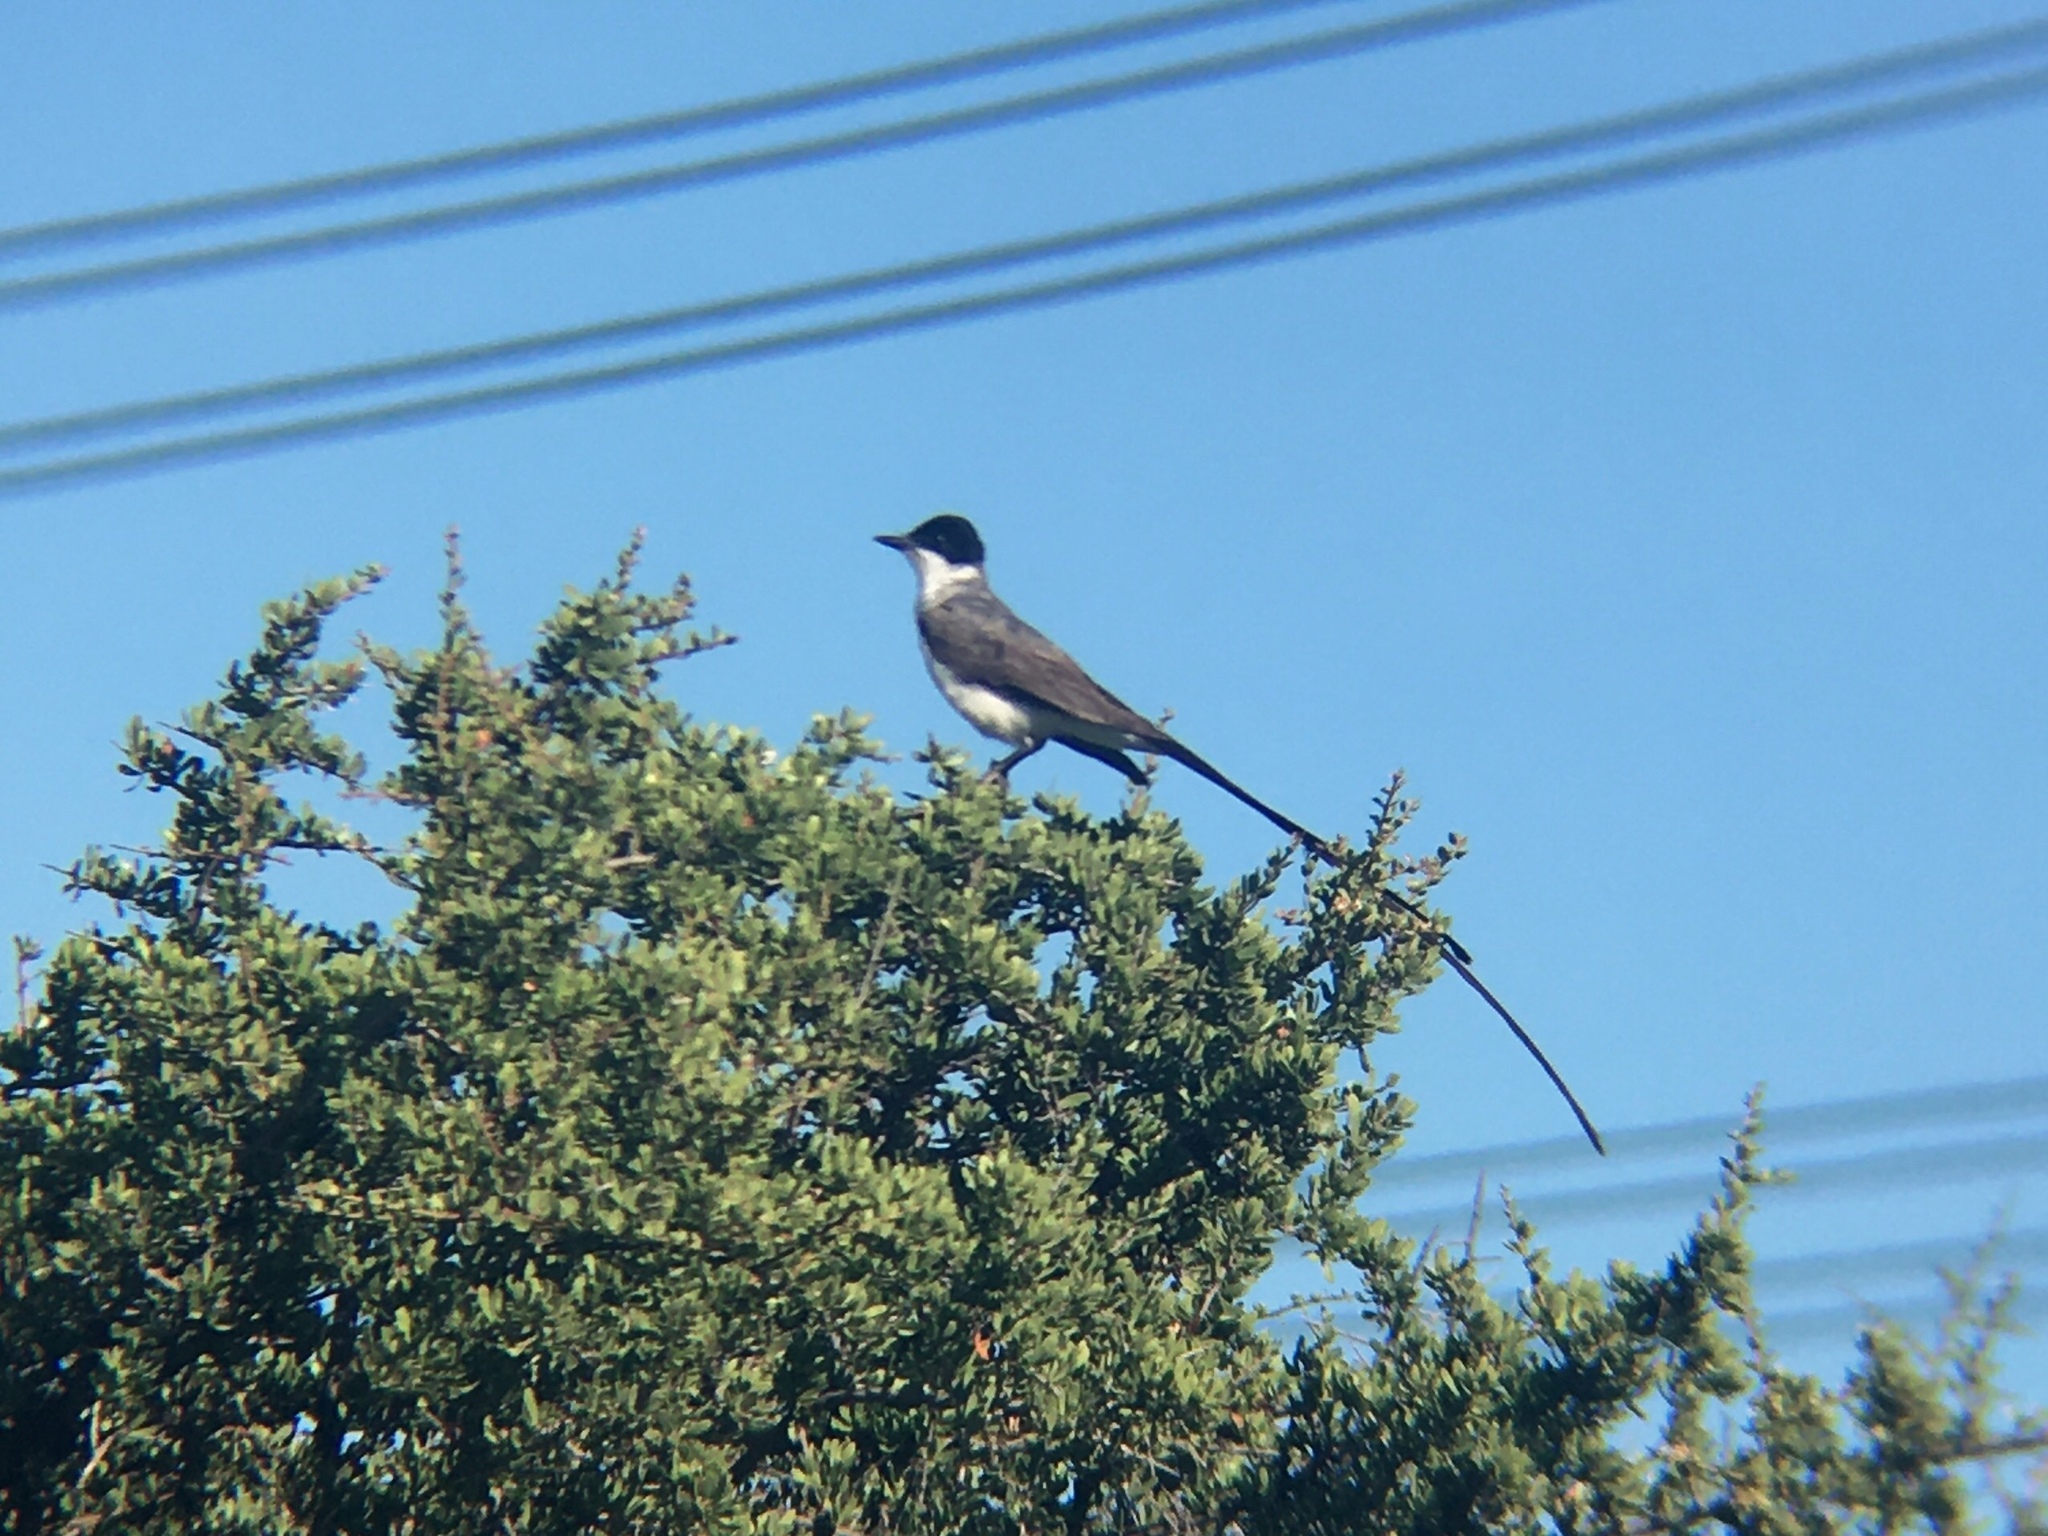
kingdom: Animalia
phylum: Chordata
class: Aves
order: Passeriformes
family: Tyrannidae
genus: Tyrannus
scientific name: Tyrannus savana
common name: Fork-tailed flycatcher
